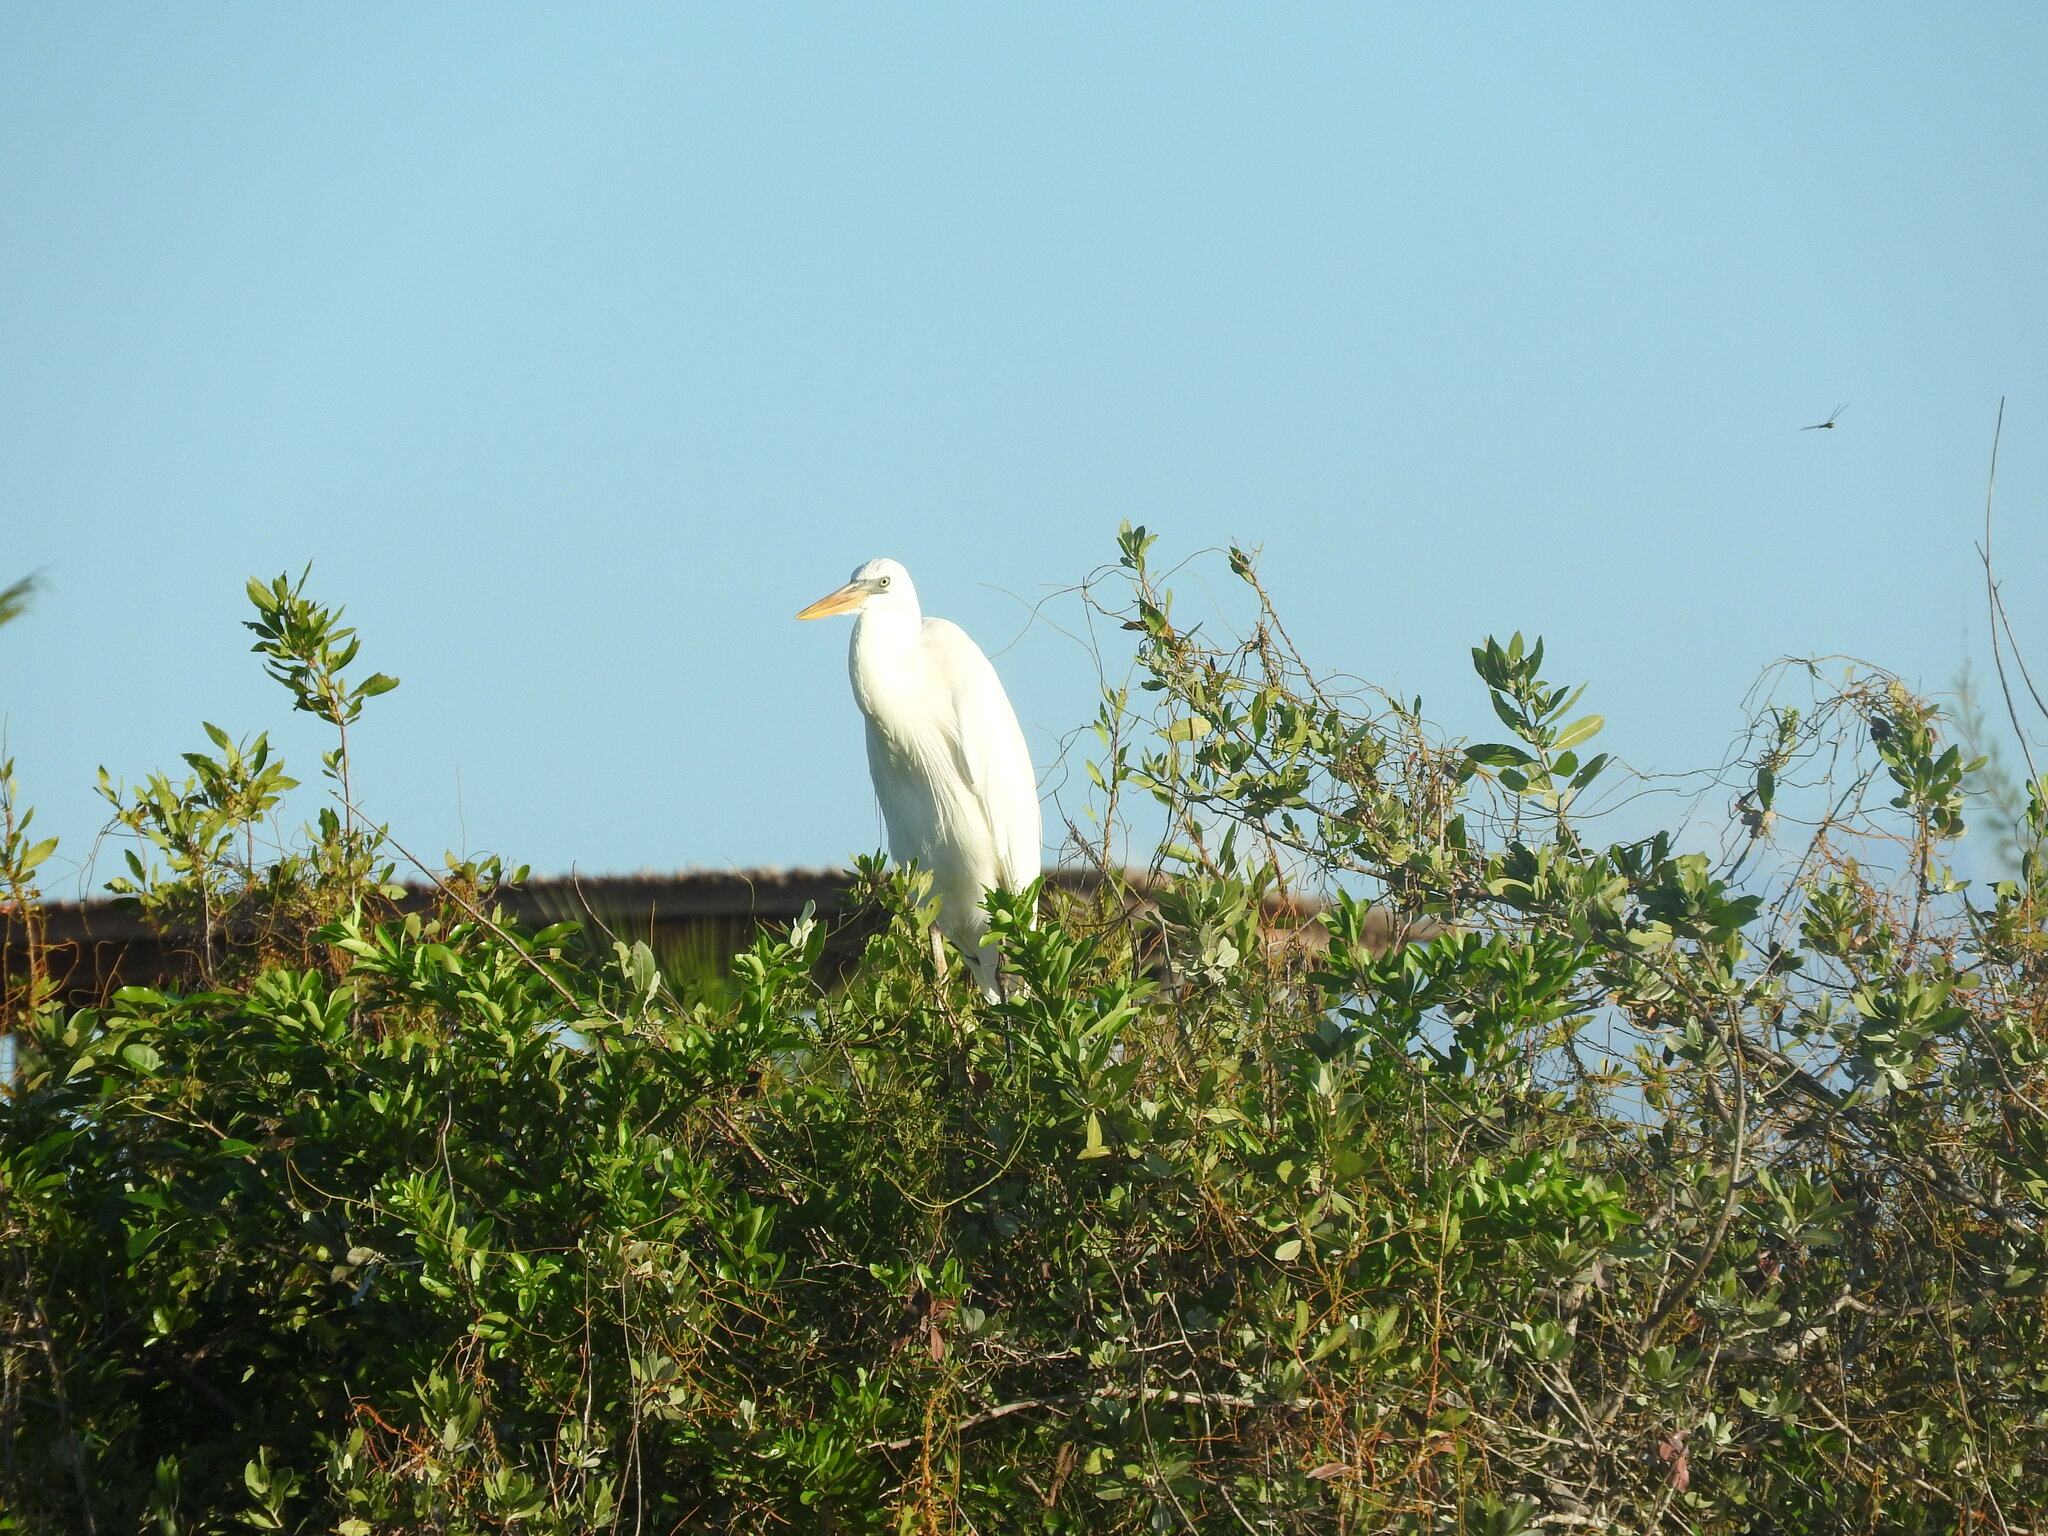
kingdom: Animalia
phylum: Chordata
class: Aves
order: Pelecaniformes
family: Ardeidae
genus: Ardea
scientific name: Ardea herodias
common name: Great blue heron
